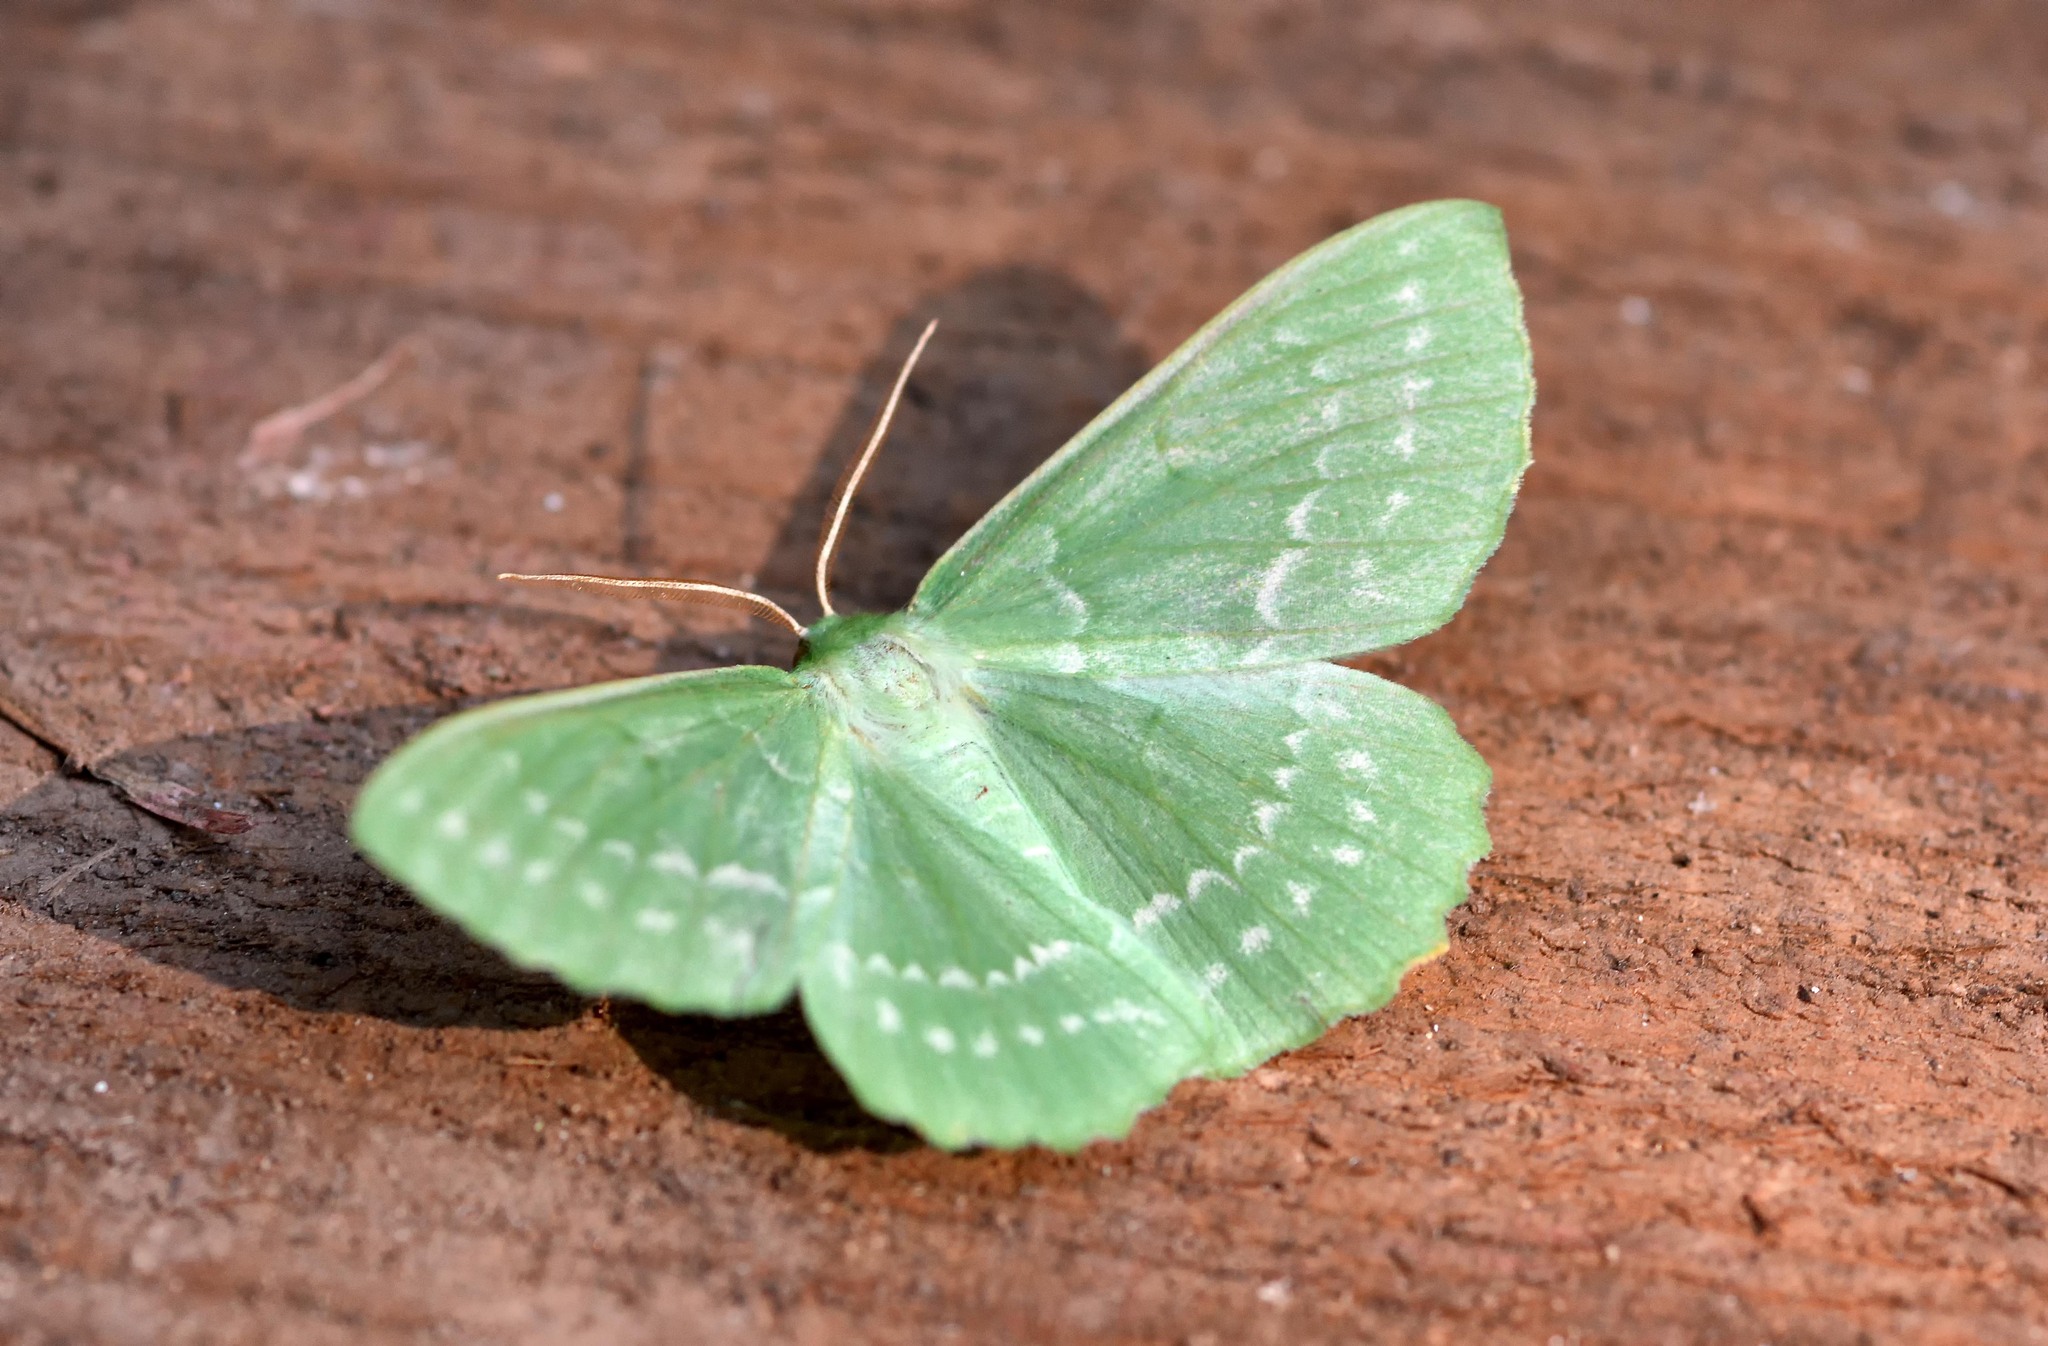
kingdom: Animalia
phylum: Arthropoda
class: Insecta
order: Lepidoptera
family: Geometridae
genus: Geometra
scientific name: Geometra papilionaria
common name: Large emerald
